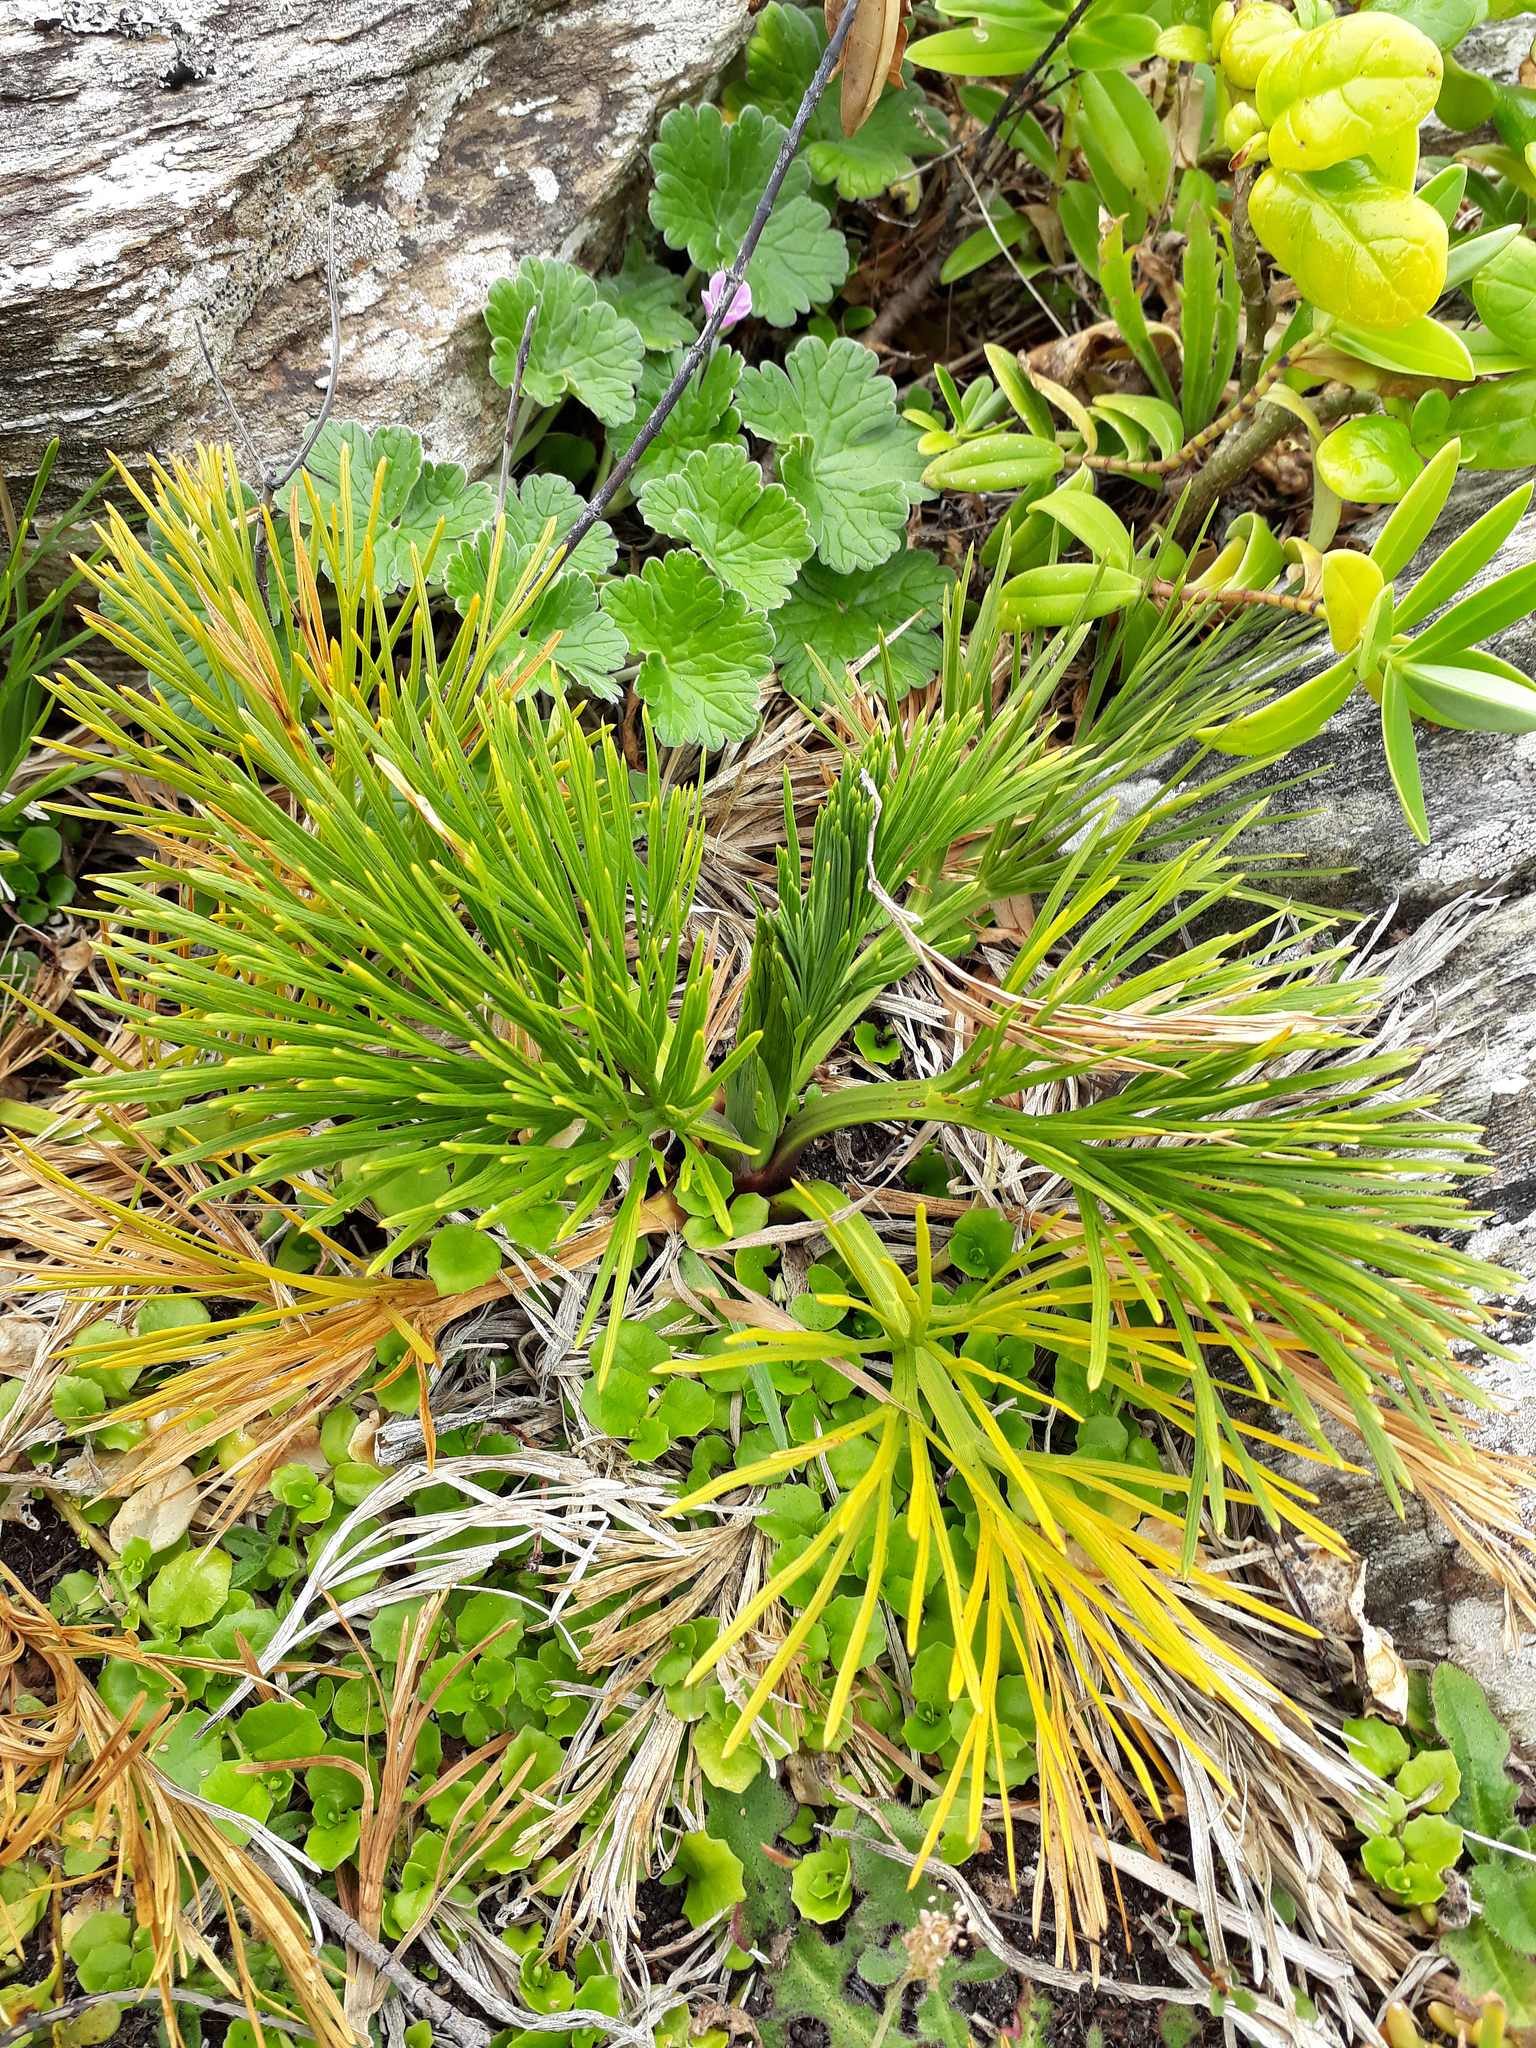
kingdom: Plantae
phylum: Tracheophyta
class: Magnoliopsida
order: Apiales
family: Apiaceae
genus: Aciphylla
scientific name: Aciphylla dieffenbachii
